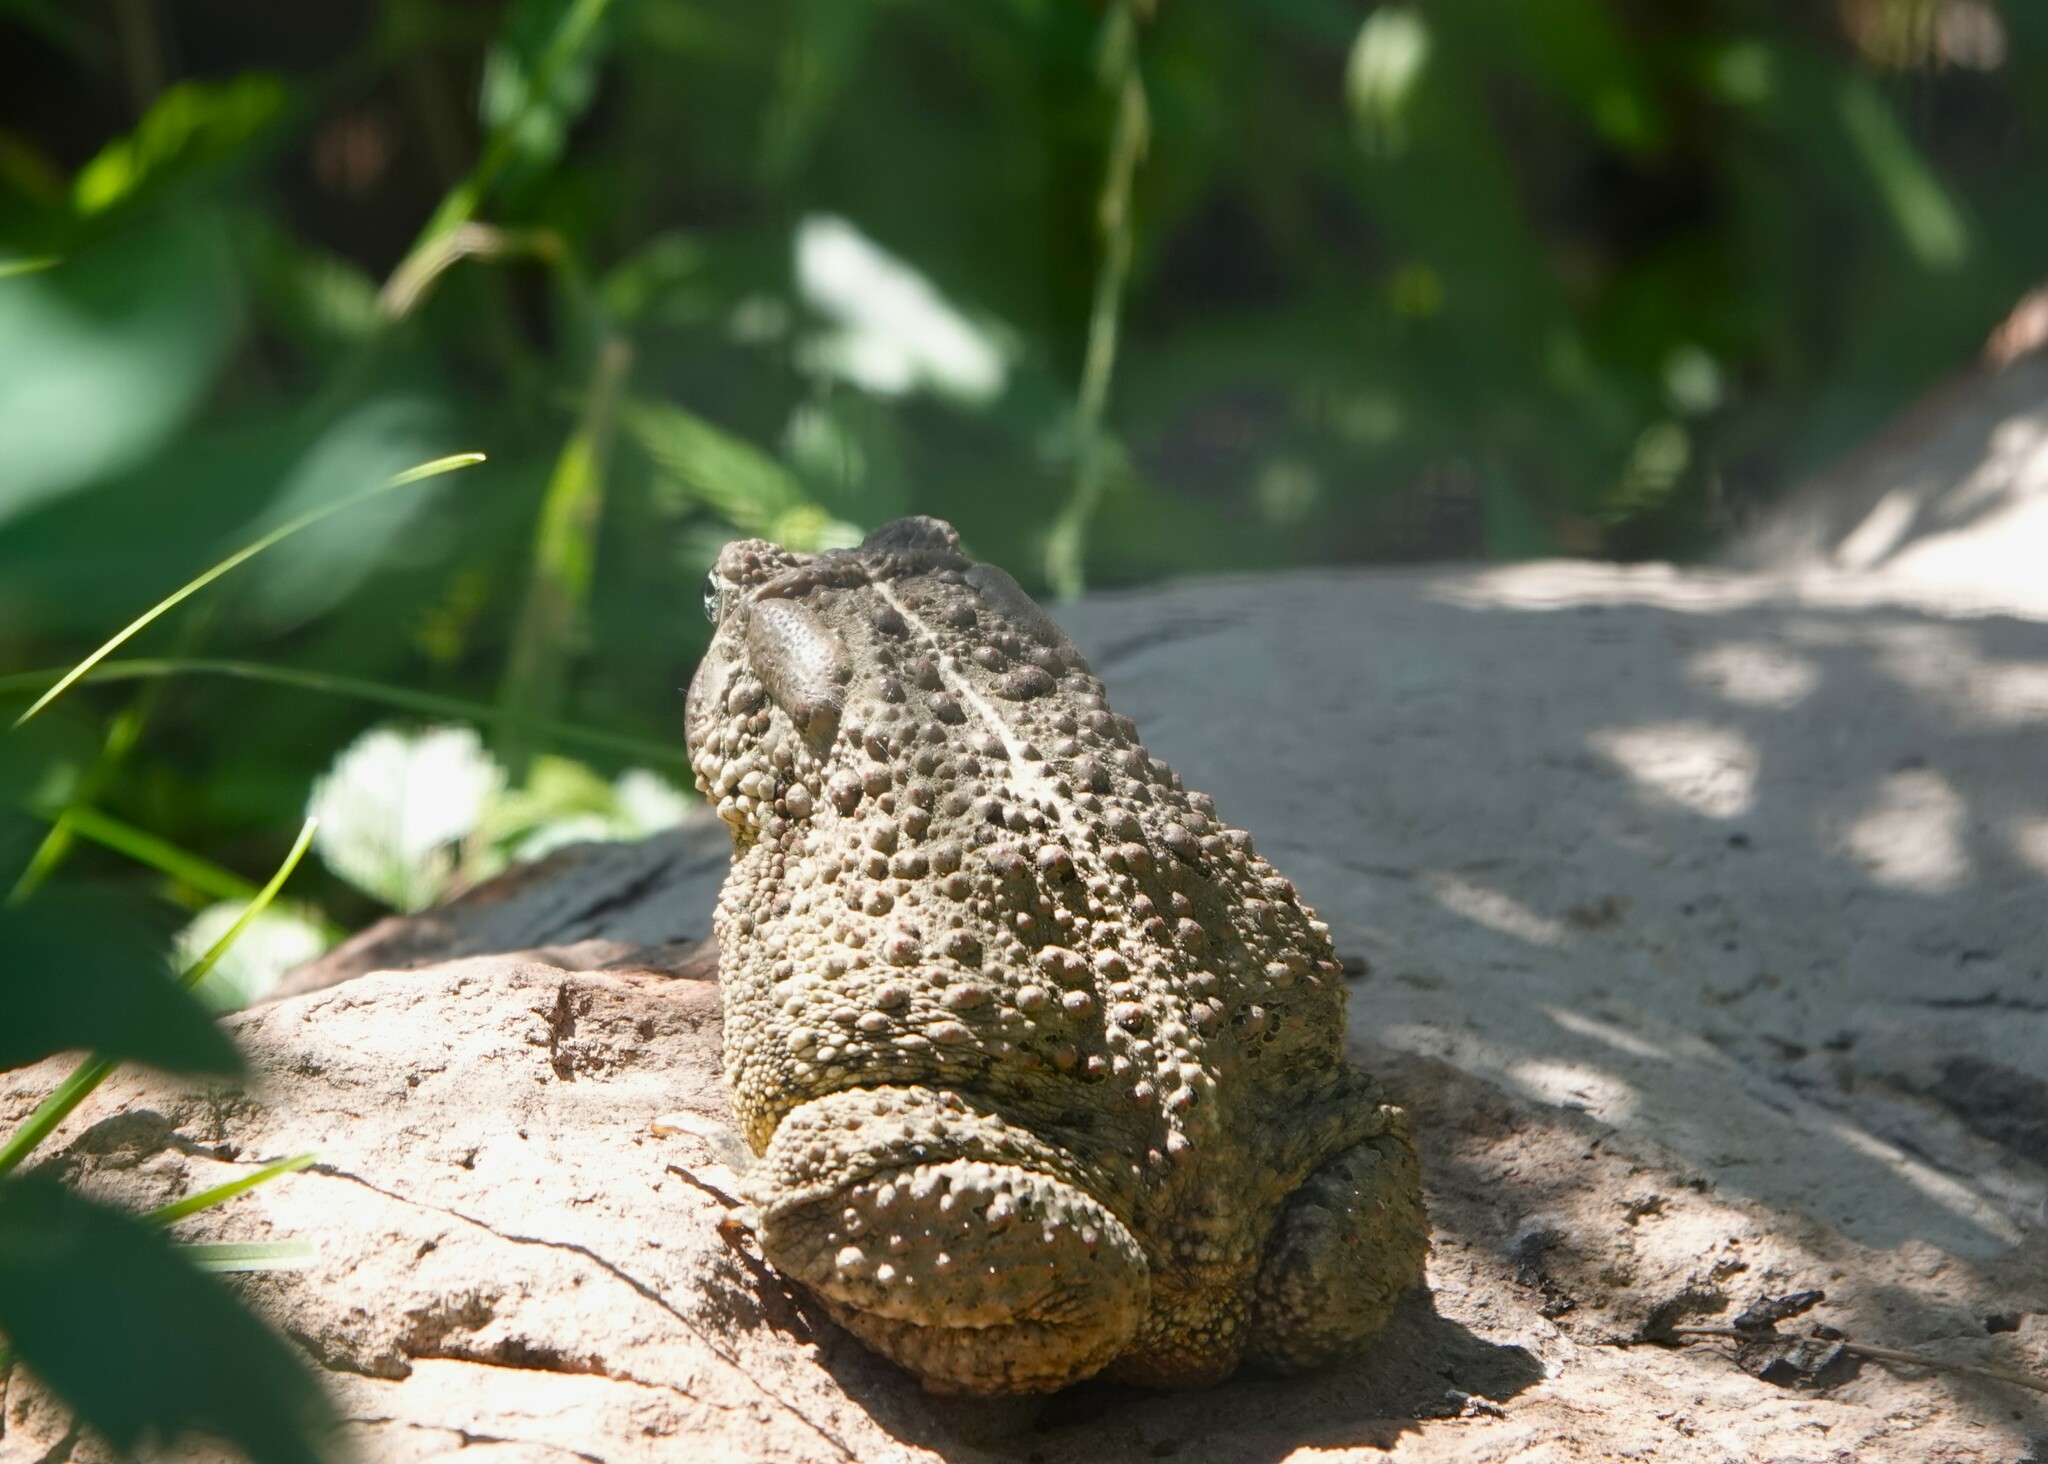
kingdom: Animalia
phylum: Chordata
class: Amphibia
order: Anura
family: Bufonidae
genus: Anaxyrus
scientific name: Anaxyrus woodhousii
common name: Woodhouse's toad
